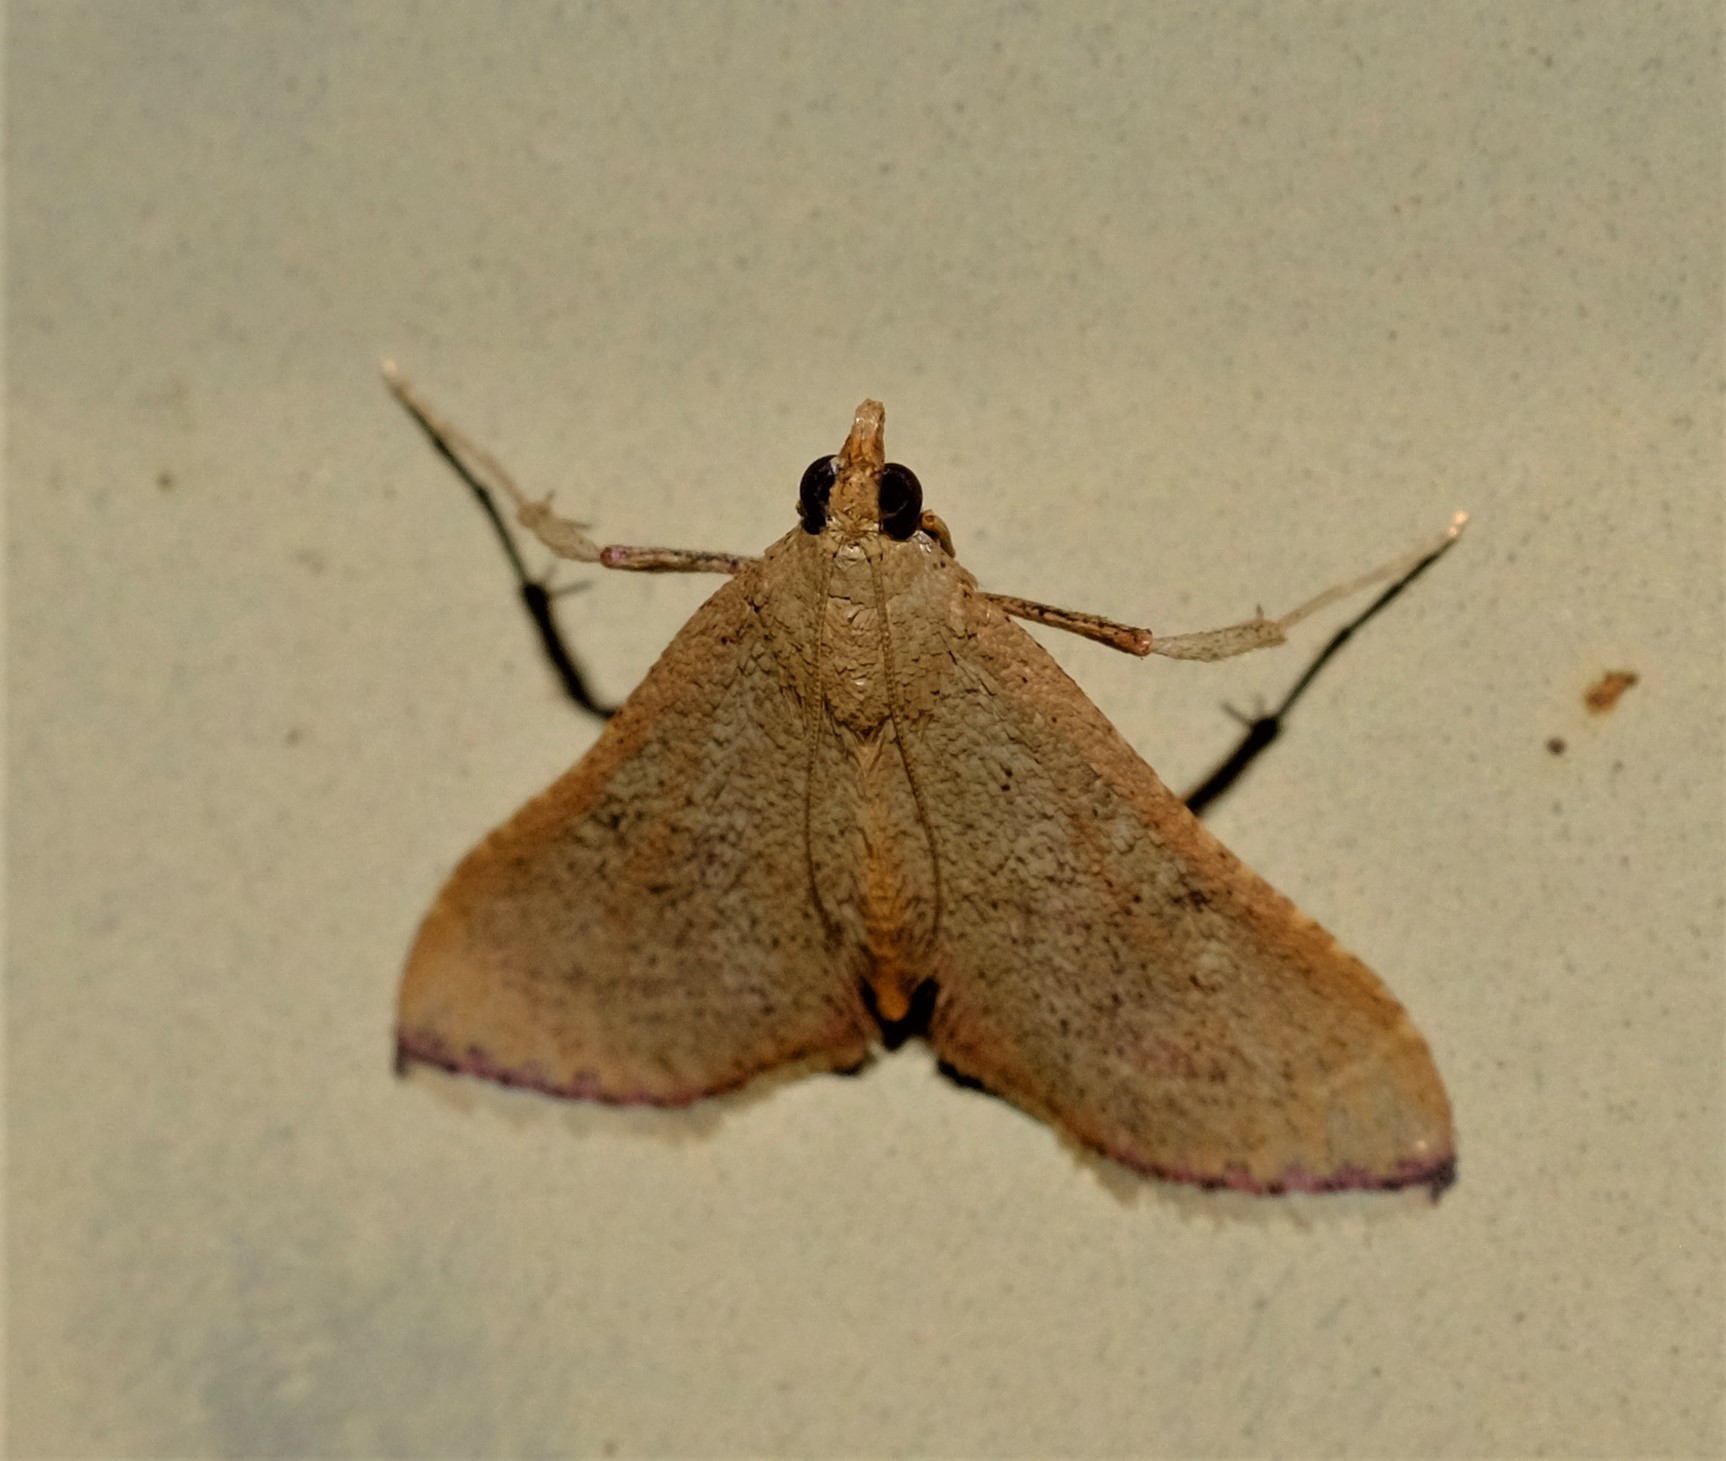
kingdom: Animalia
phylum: Arthropoda
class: Insecta
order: Lepidoptera
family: Pyralidae
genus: Endotricha
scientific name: Endotricha pyrosalis
